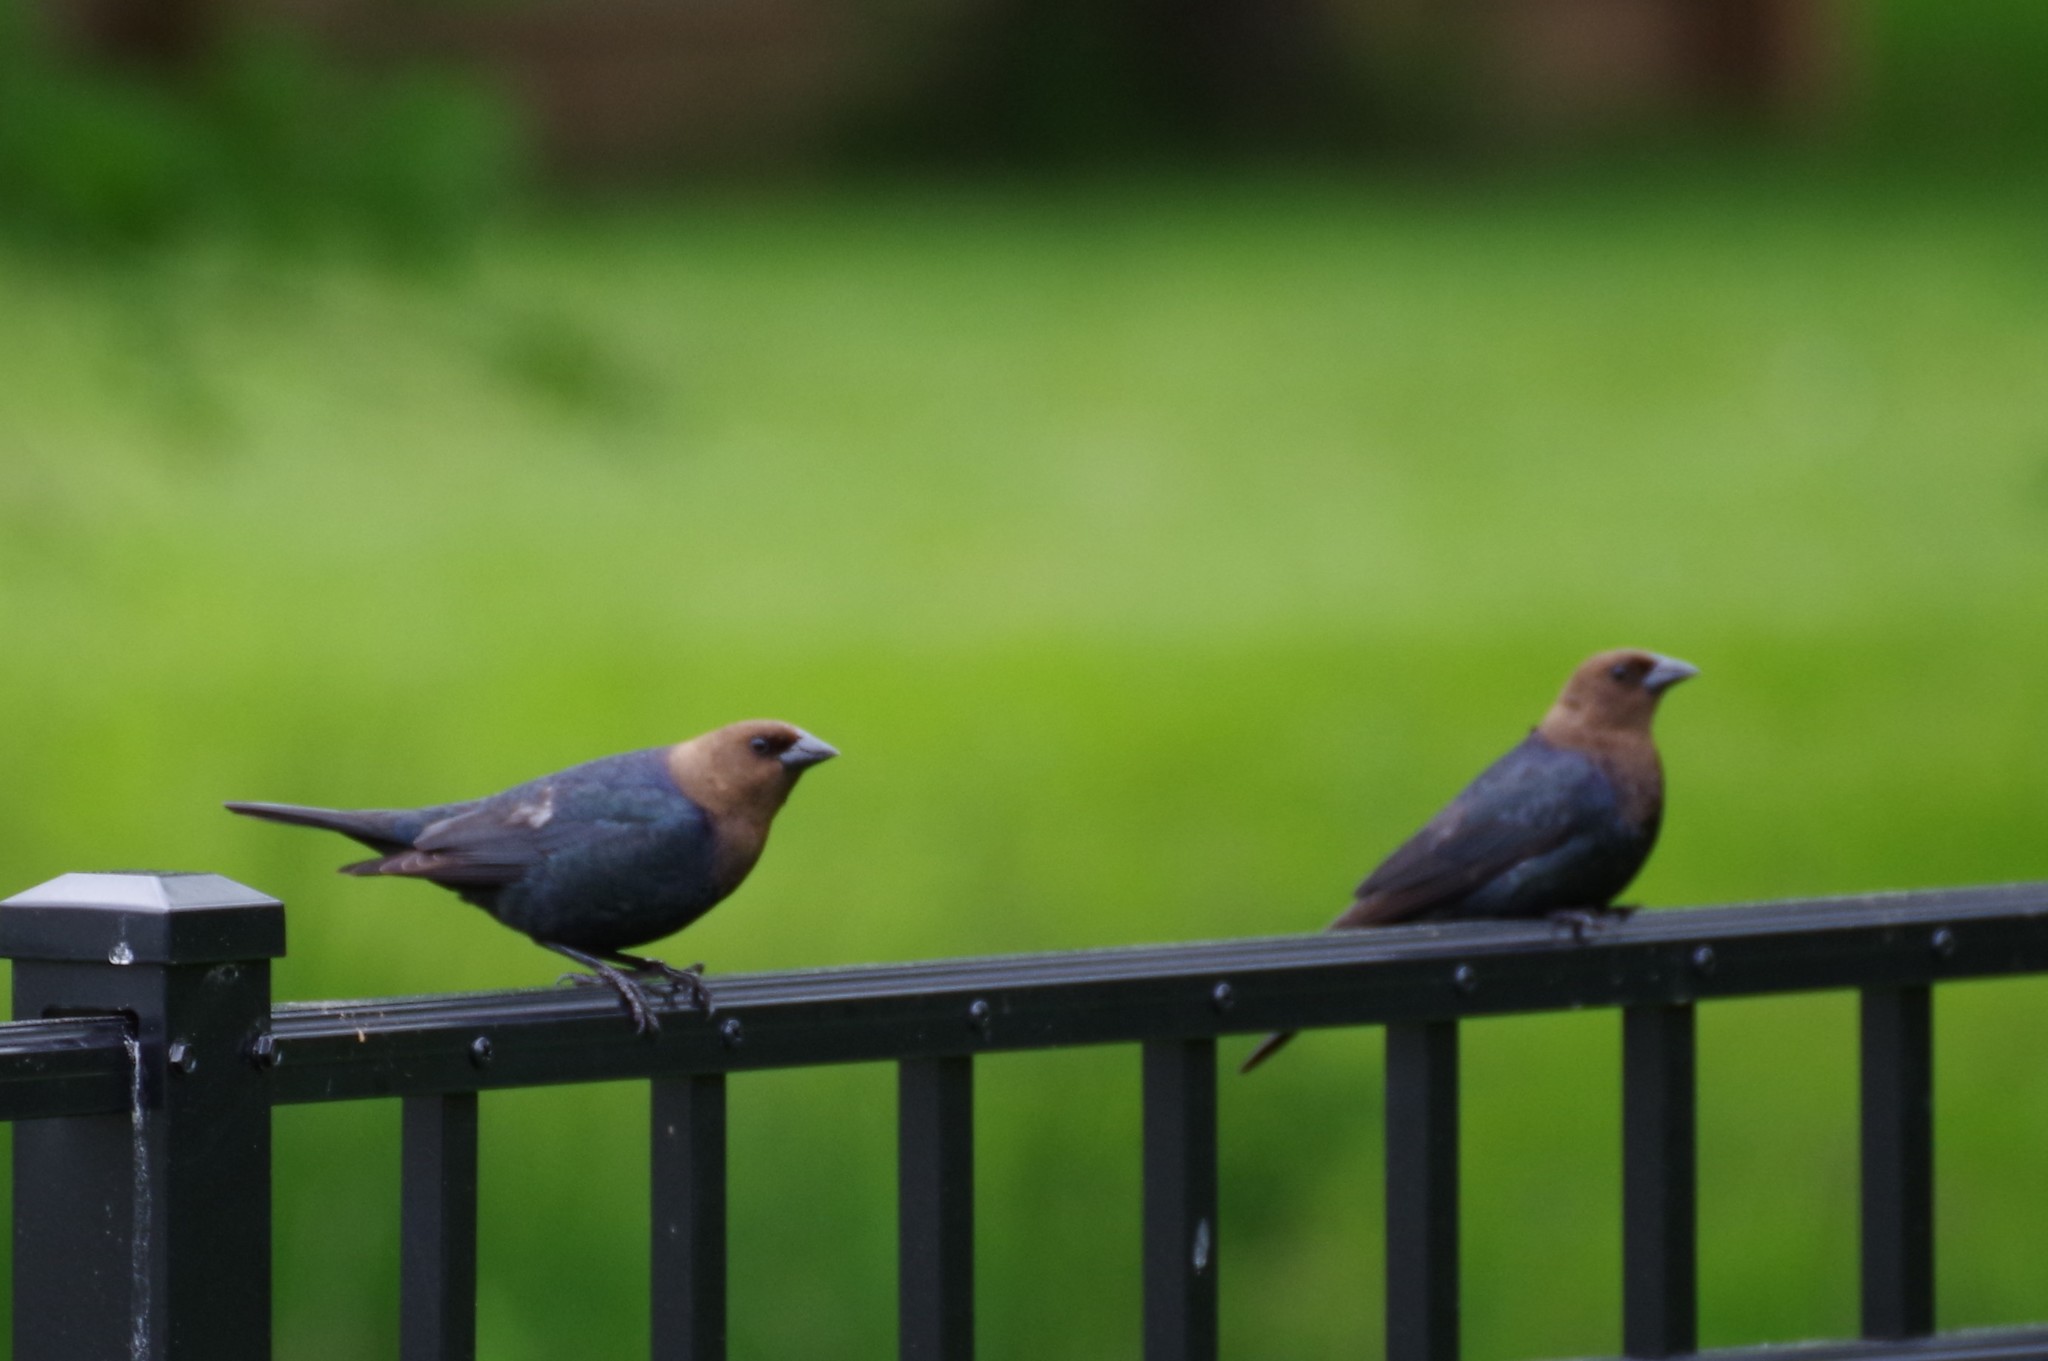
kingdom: Animalia
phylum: Chordata
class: Aves
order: Passeriformes
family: Icteridae
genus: Molothrus
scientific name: Molothrus ater
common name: Brown-headed cowbird
